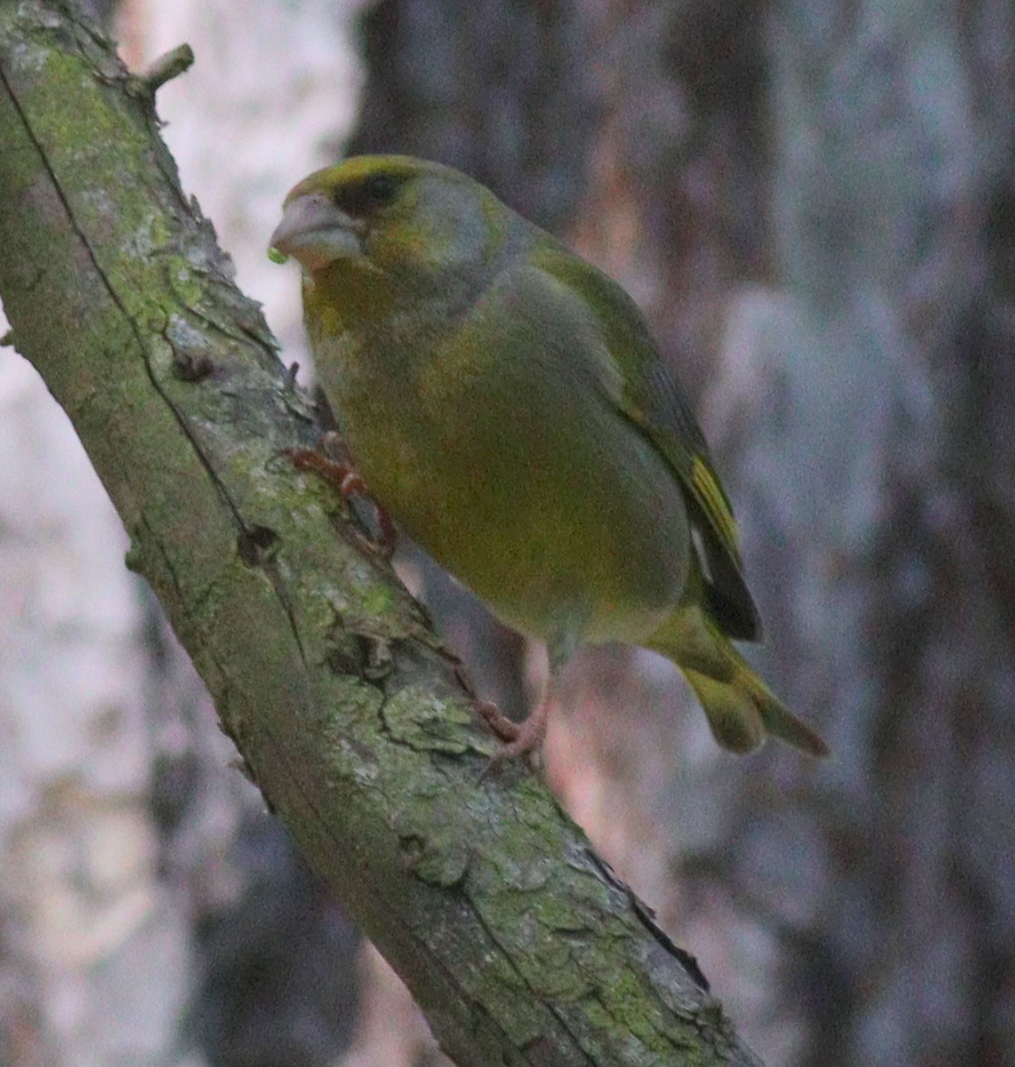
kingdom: Plantae
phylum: Tracheophyta
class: Liliopsida
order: Poales
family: Poaceae
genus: Chloris
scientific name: Chloris chloris
